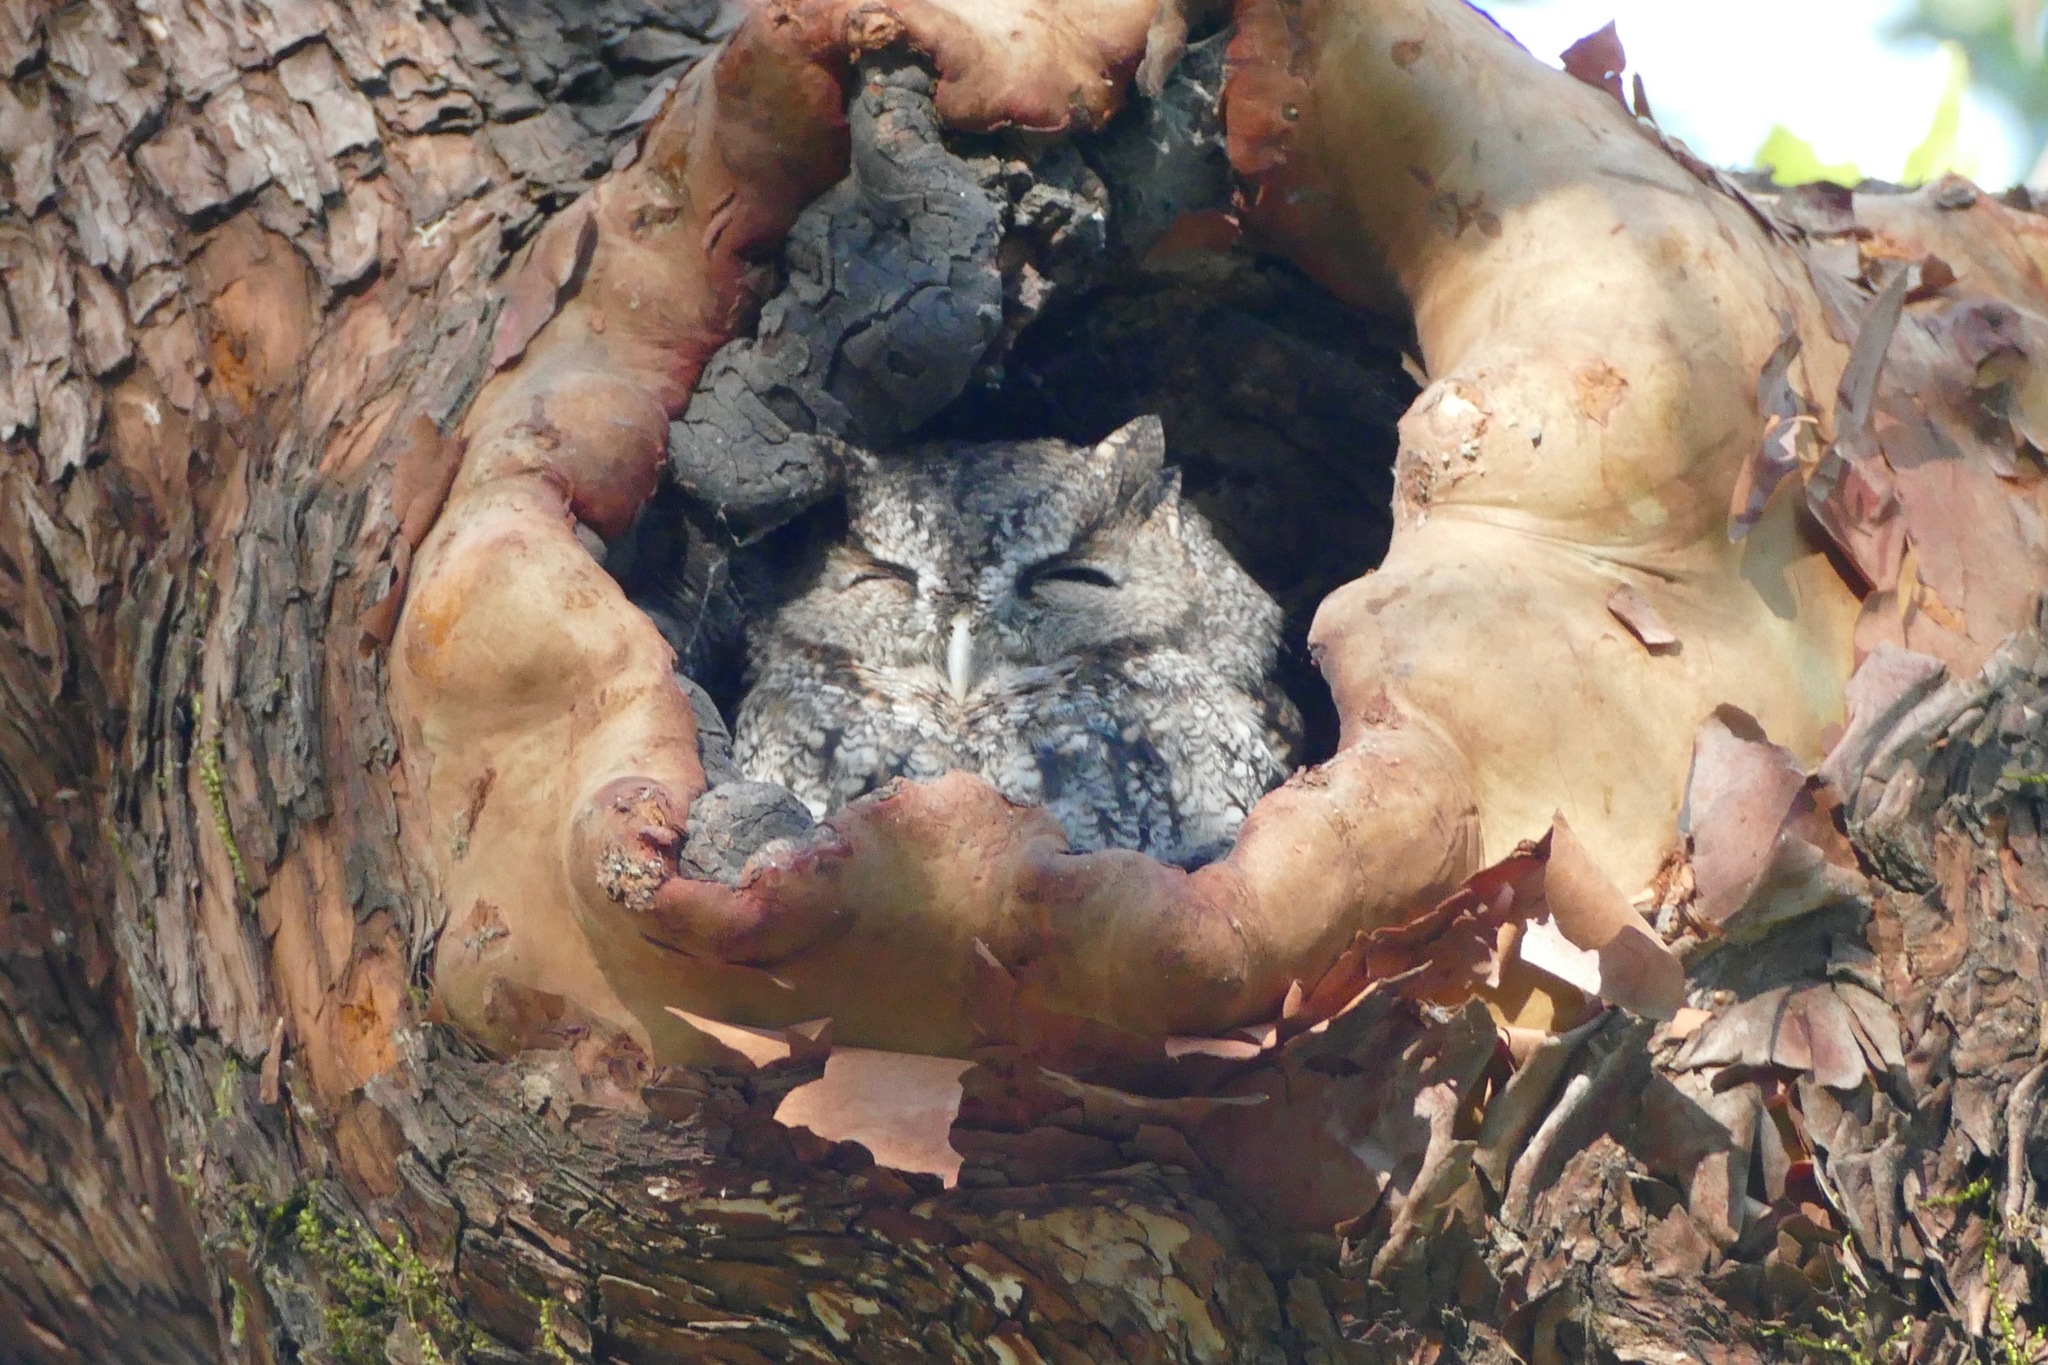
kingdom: Animalia
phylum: Chordata
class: Aves
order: Strigiformes
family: Strigidae
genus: Megascops
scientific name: Megascops kennicottii
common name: Western screech-owl
